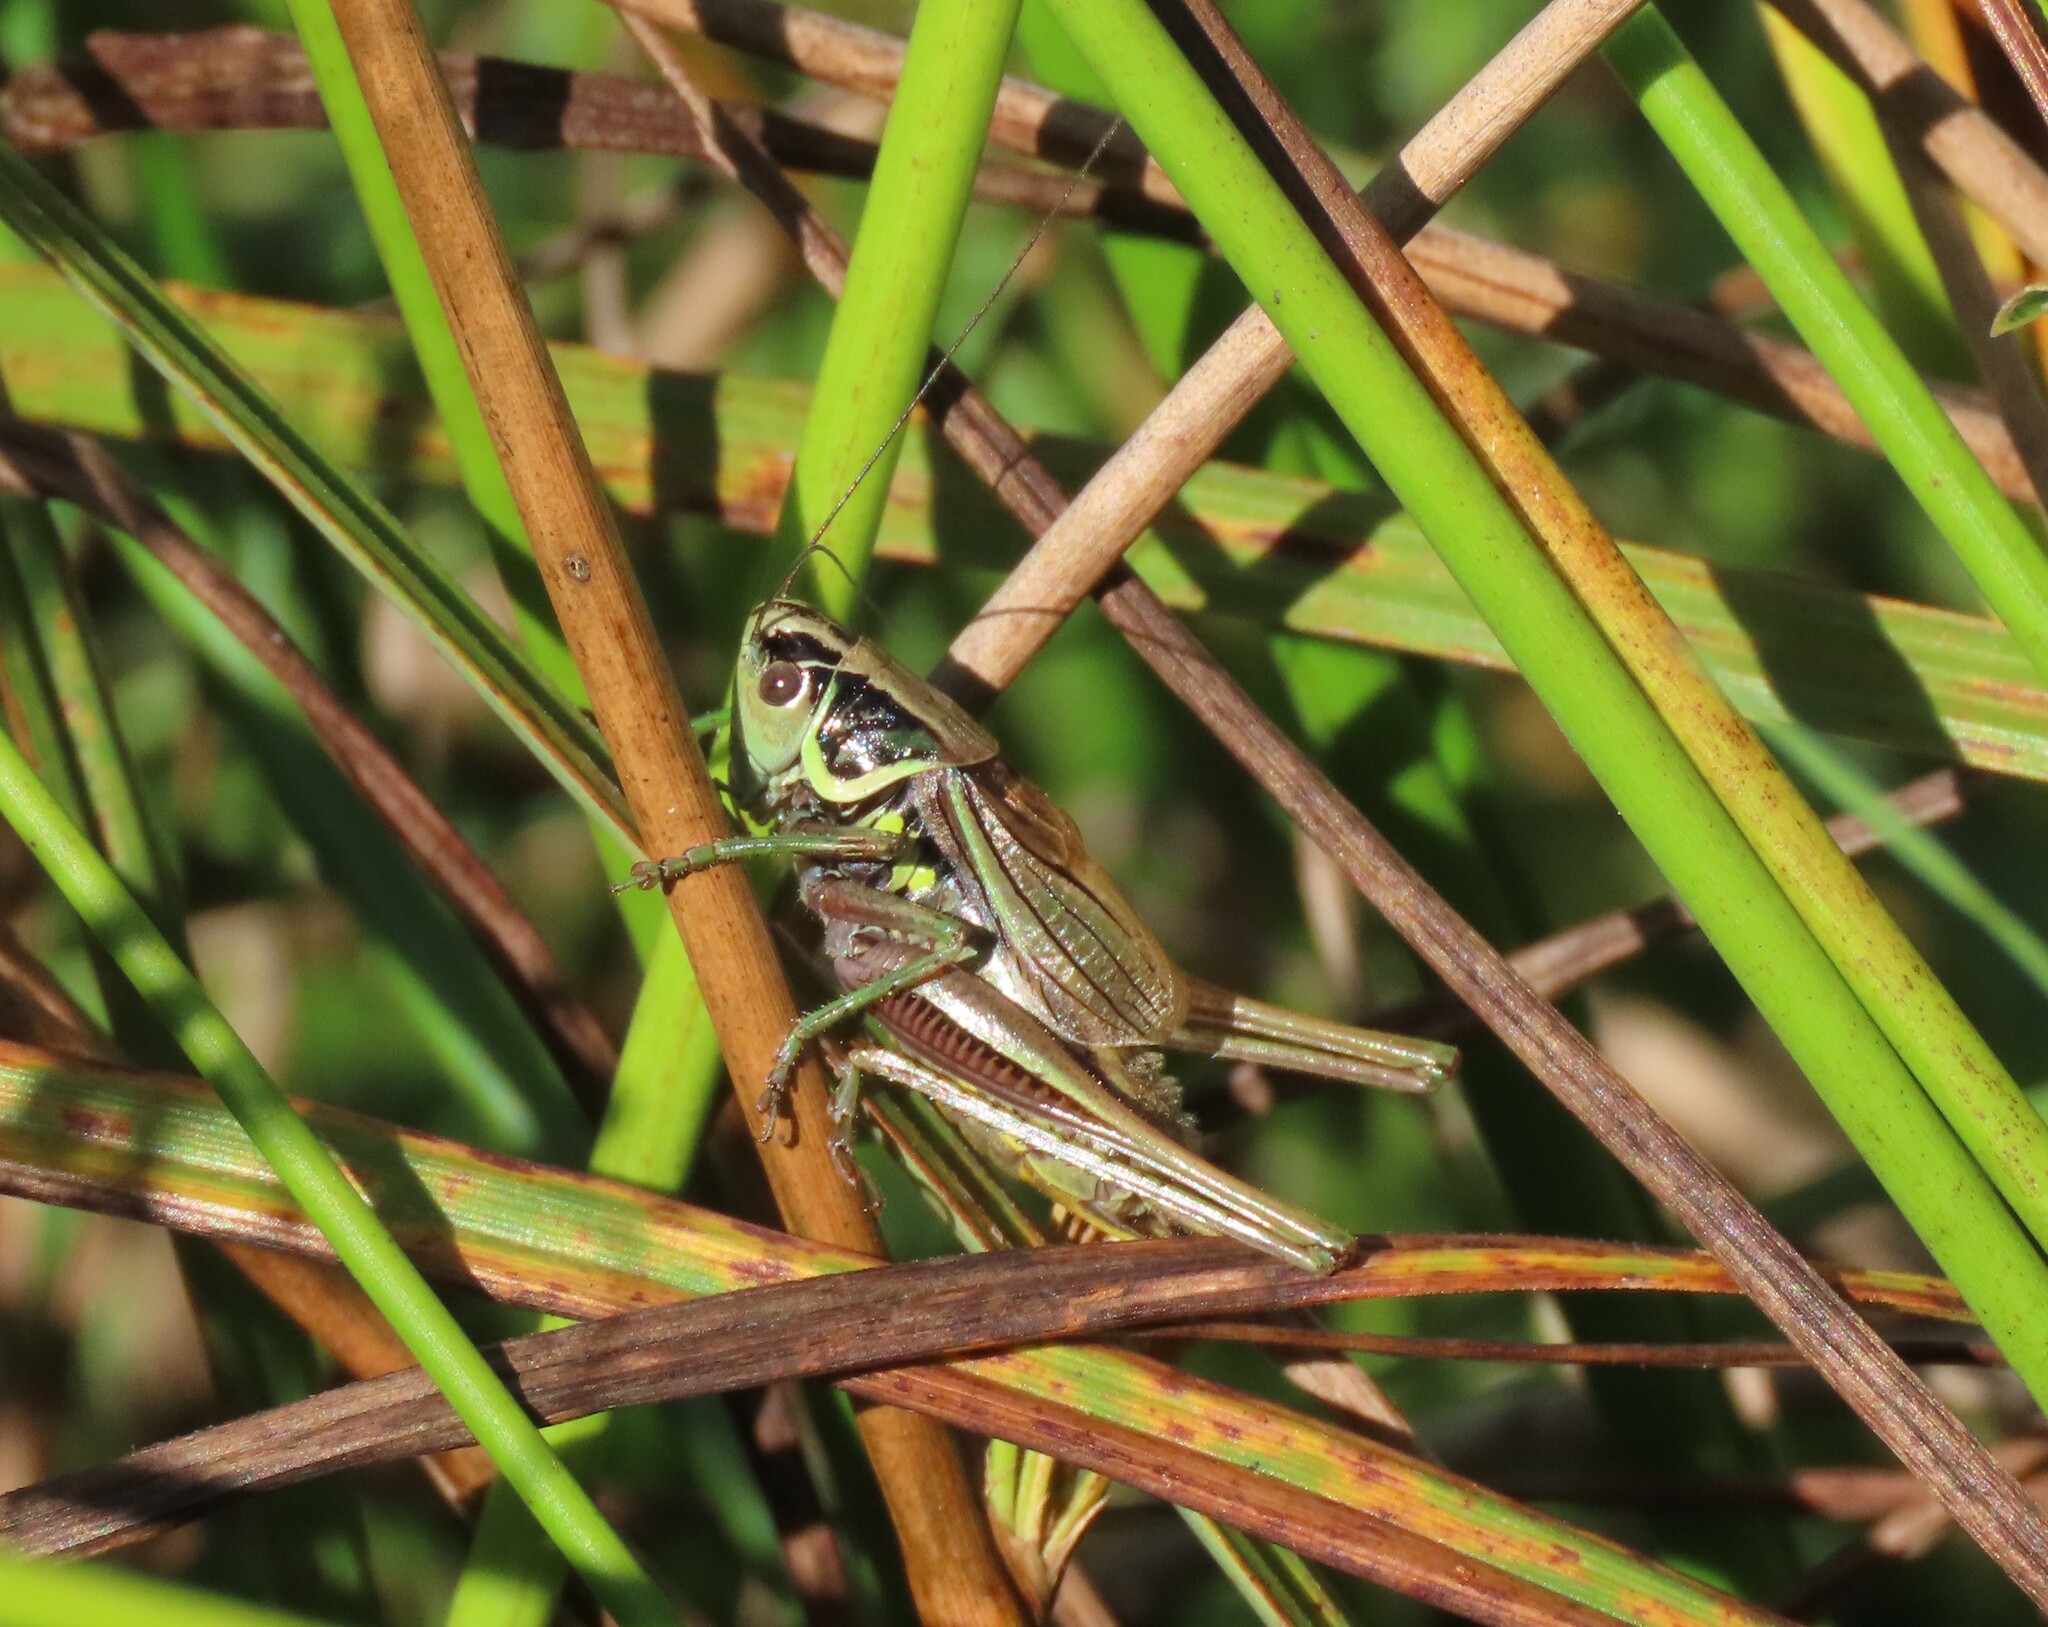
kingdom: Animalia
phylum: Arthropoda
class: Insecta
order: Orthoptera
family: Tettigoniidae
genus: Roeseliana
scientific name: Roeseliana roeselii
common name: Roesel's bush cricket
